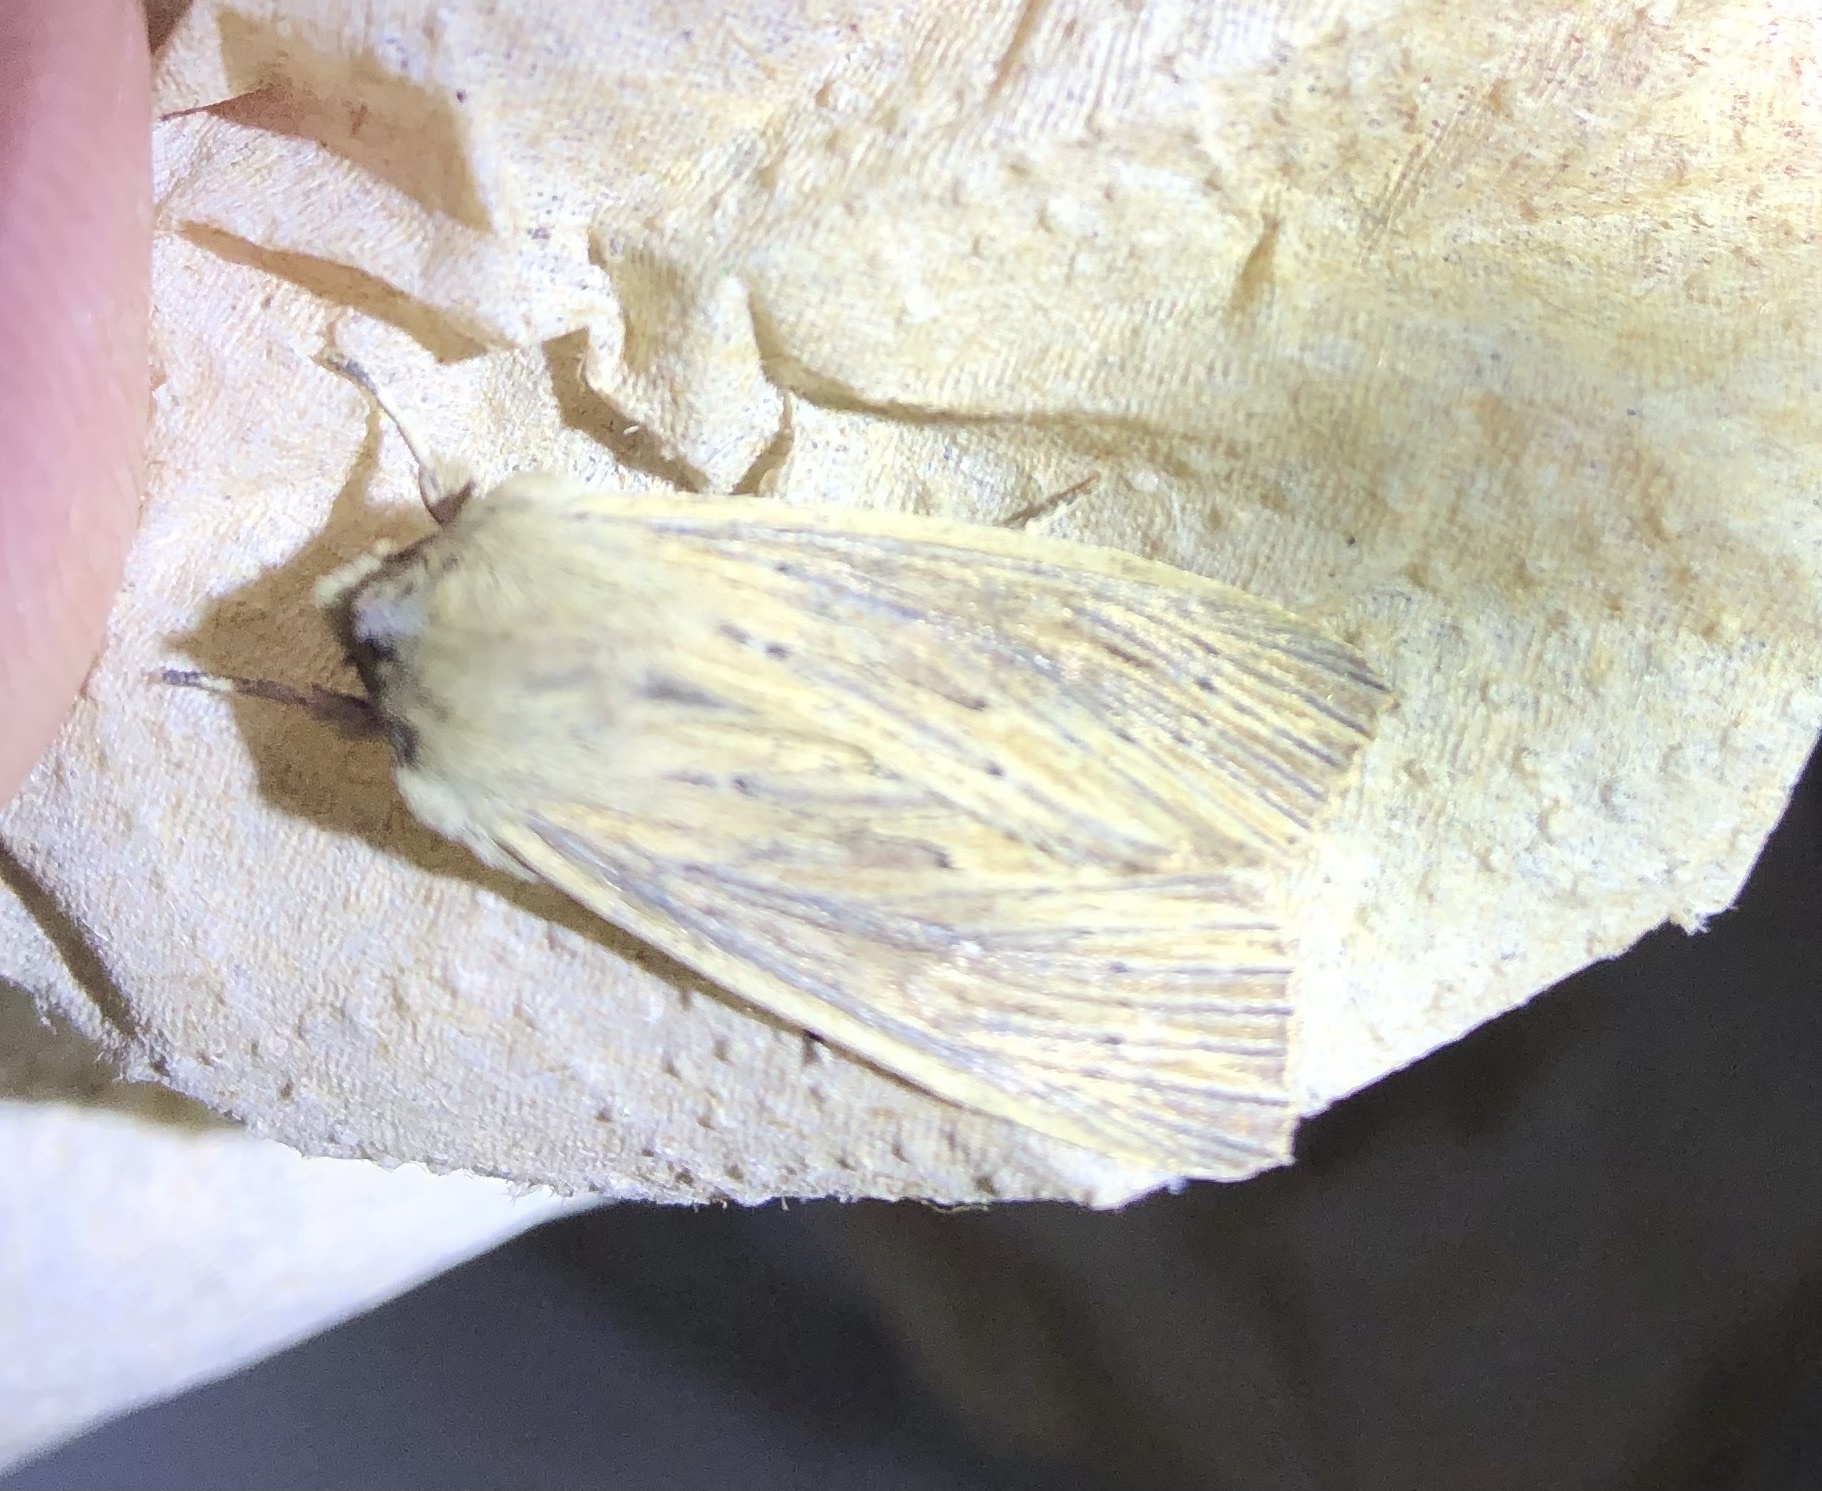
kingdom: Animalia
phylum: Arthropoda
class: Insecta
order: Lepidoptera
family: Noctuidae
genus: Ichneutica
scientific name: Ichneutica arotis
